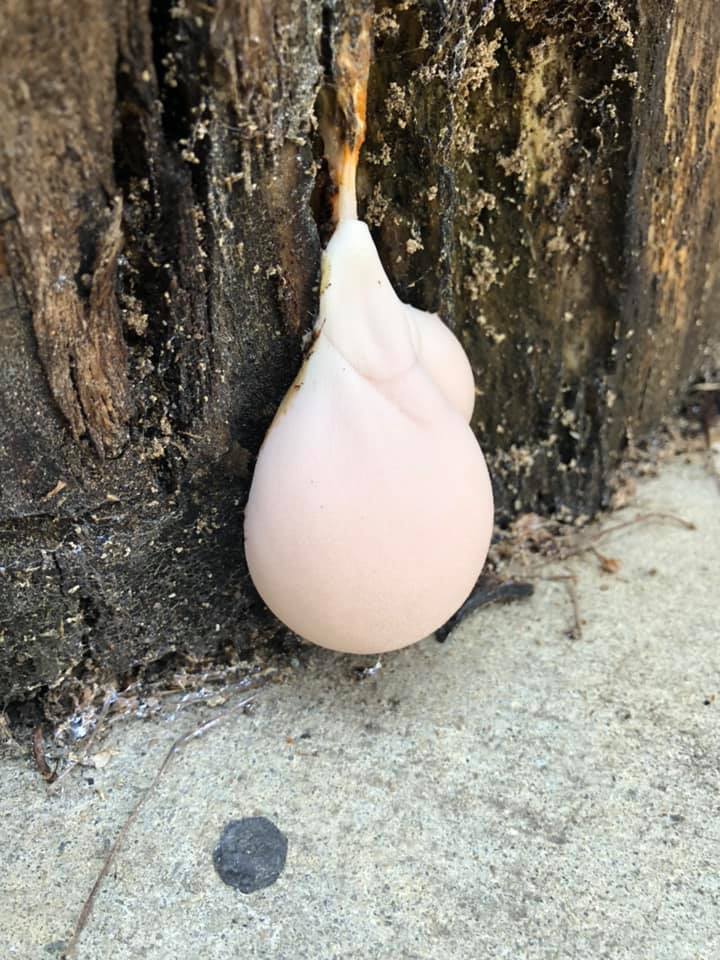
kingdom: Protozoa
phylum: Mycetozoa
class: Myxomycetes
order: Cribrariales
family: Tubiferaceae
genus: Lycogala
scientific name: Lycogala flavofuscum
